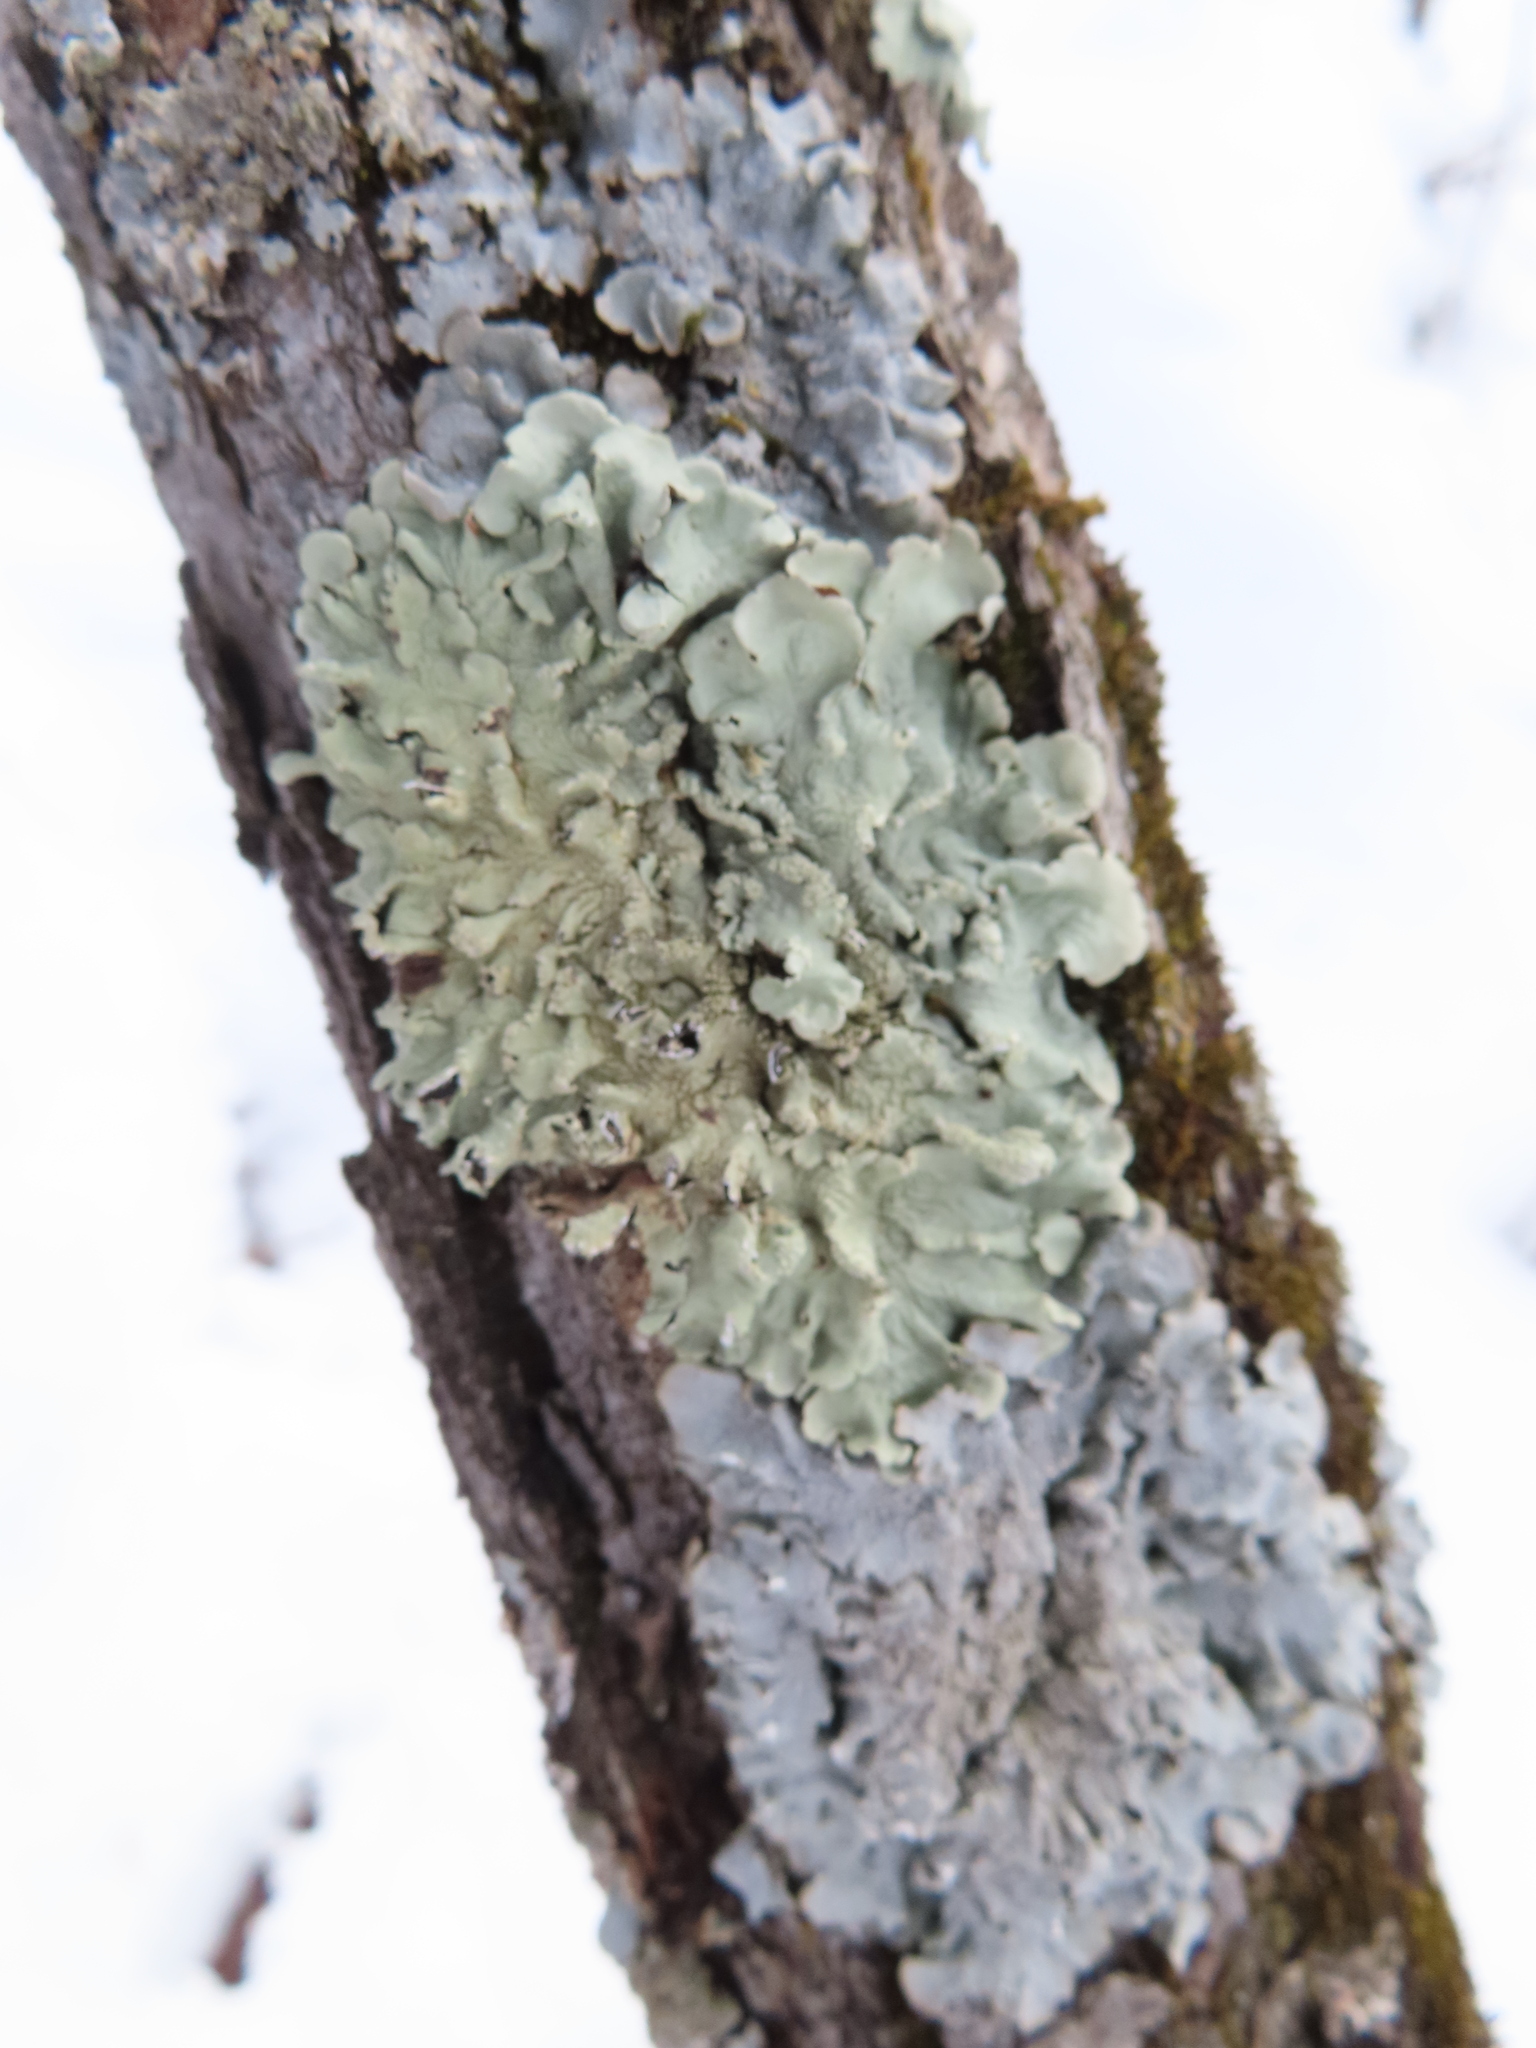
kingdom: Fungi
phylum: Ascomycota
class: Lecanoromycetes
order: Lecanorales
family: Parmeliaceae
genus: Flavoparmelia
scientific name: Flavoparmelia caperata
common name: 40-mile per hour lichen
